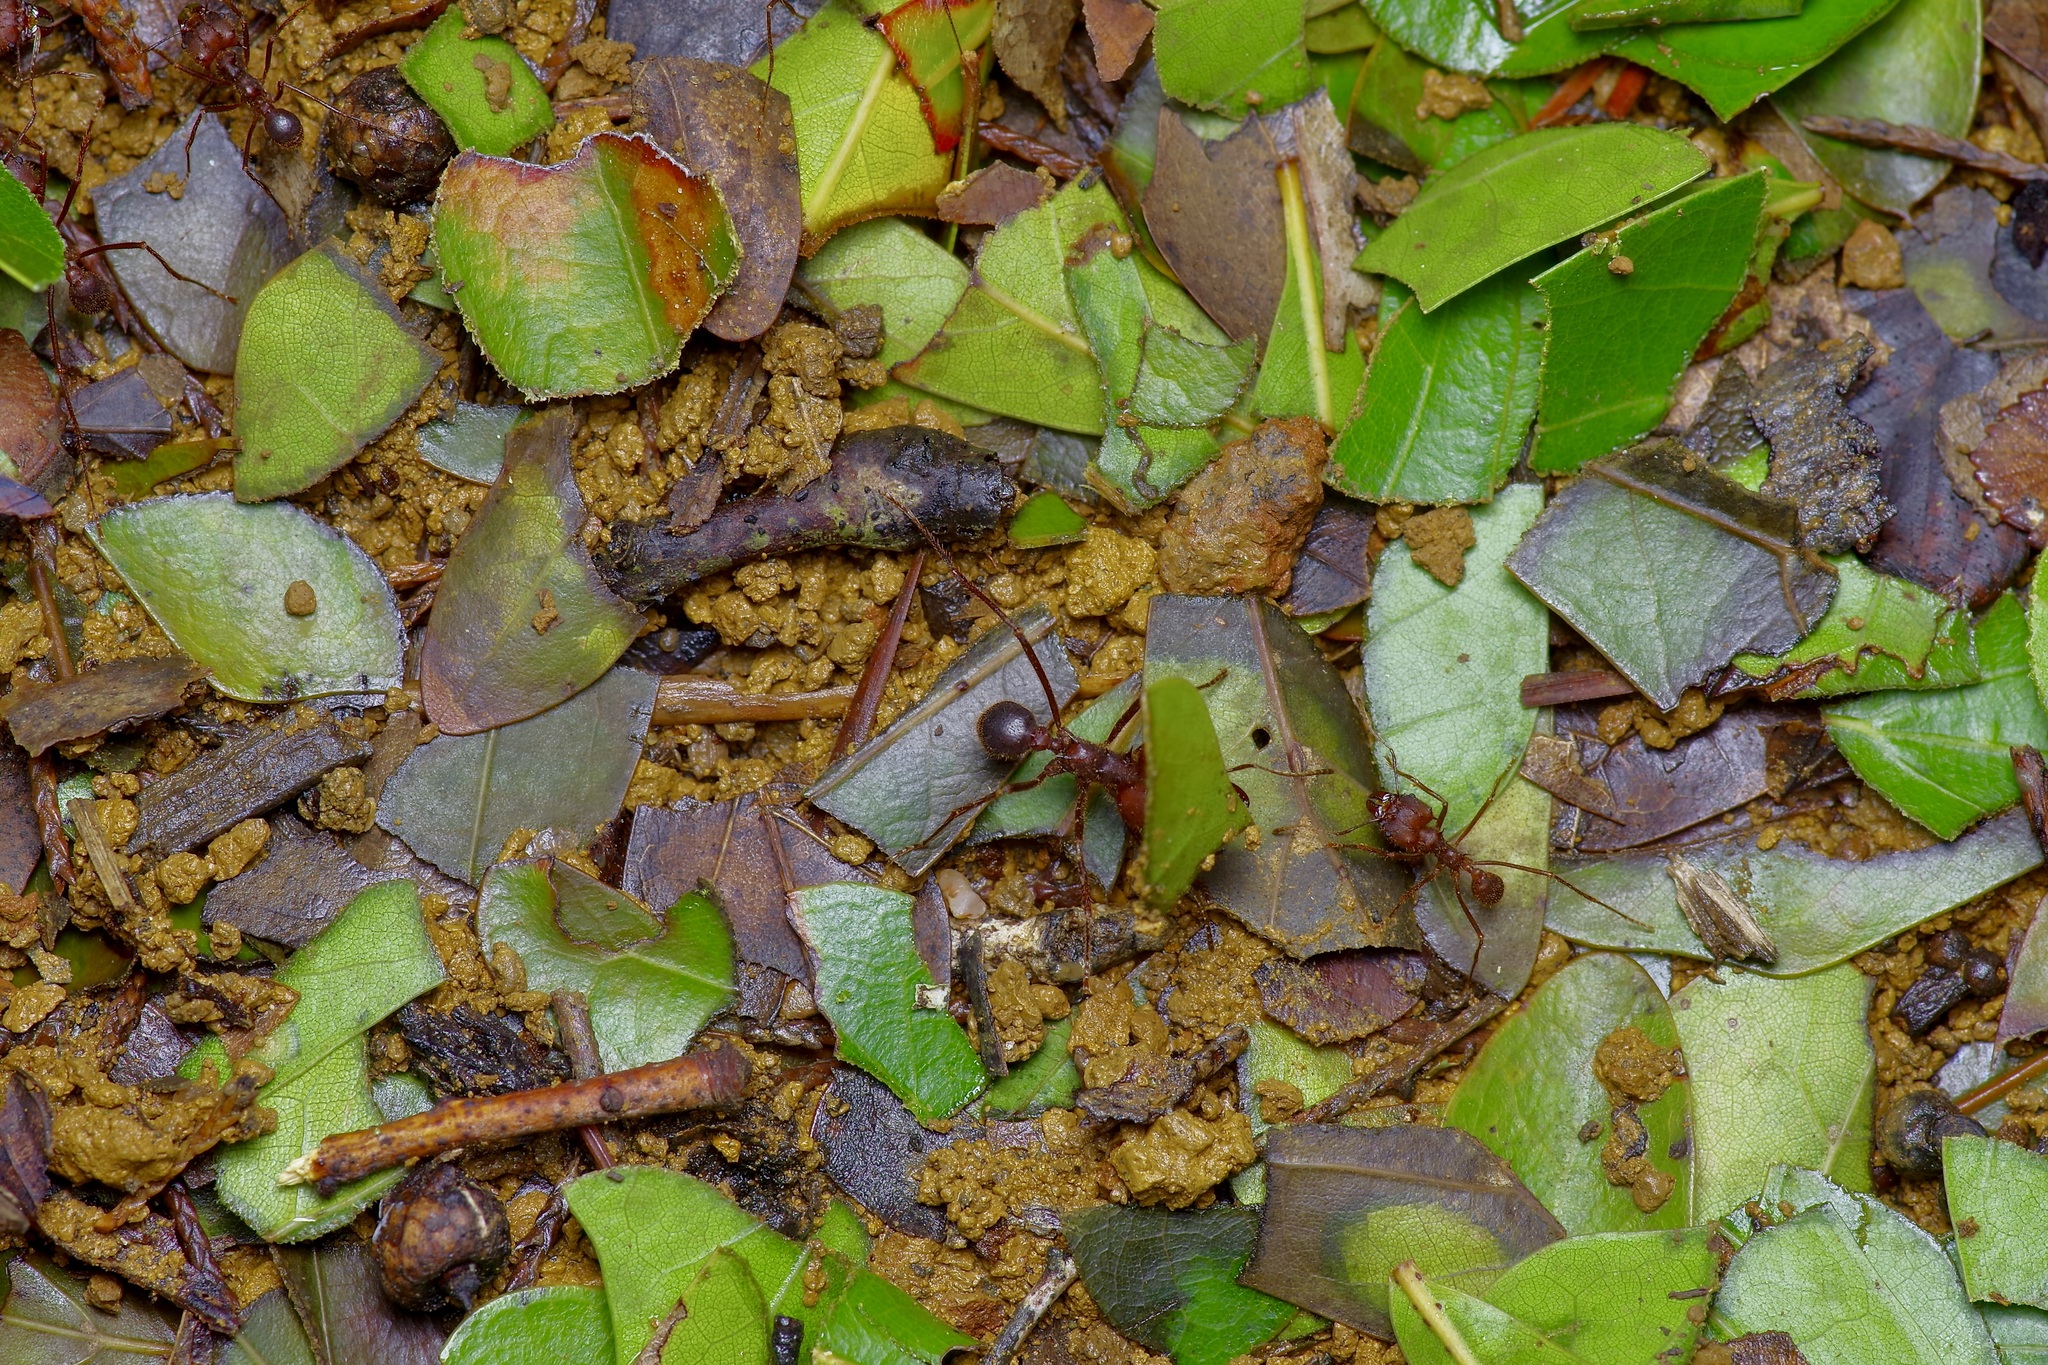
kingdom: Animalia
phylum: Arthropoda
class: Insecta
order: Hymenoptera
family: Formicidae
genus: Atta
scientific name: Atta texana
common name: Texas leafcutting ant
